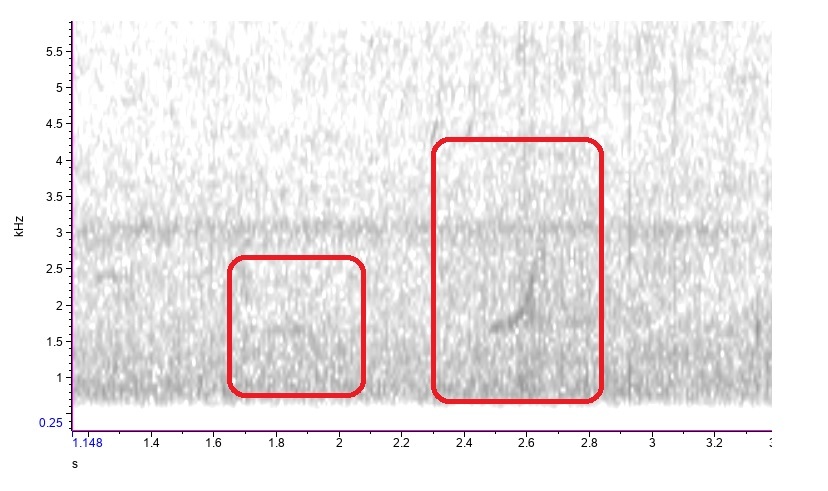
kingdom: Animalia
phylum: Chordata
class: Aves
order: Galliformes
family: Odontophoridae
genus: Colinus
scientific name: Colinus virginianus
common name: Northern bobwhite
